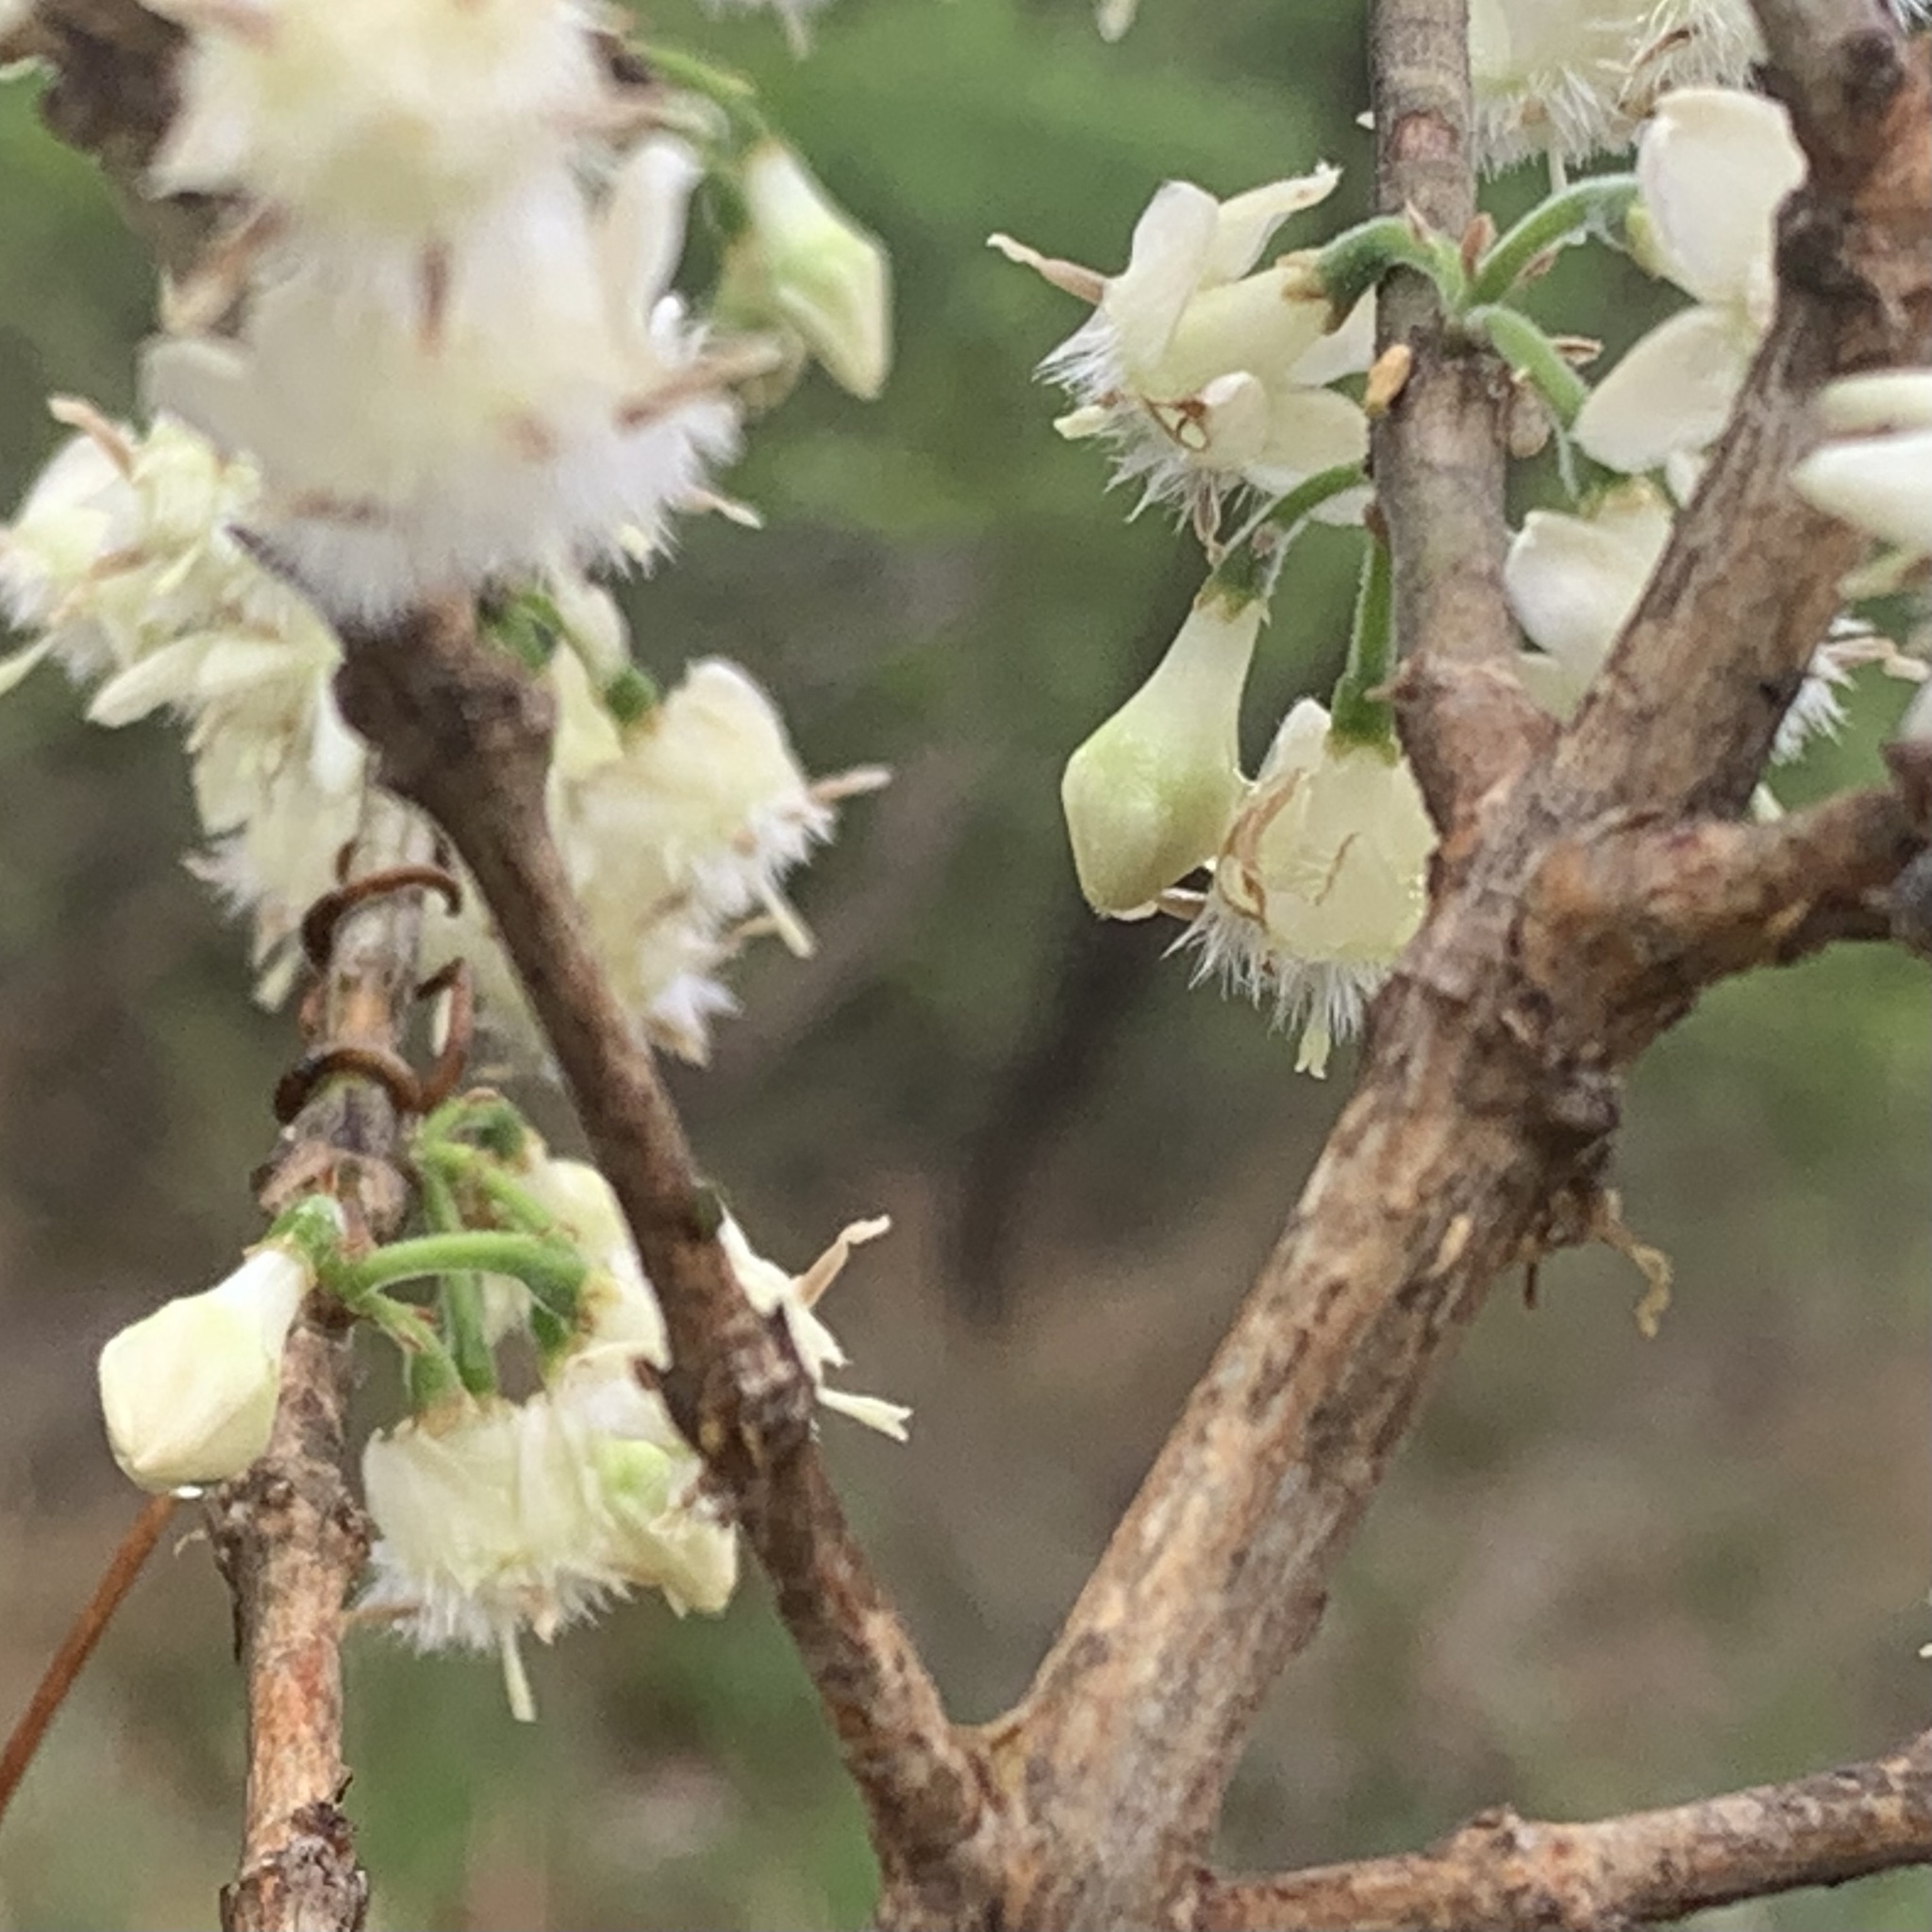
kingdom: Plantae
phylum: Tracheophyta
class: Magnoliopsida
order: Gentianales
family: Rubiaceae
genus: Empogona
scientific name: Empogona kirkii
